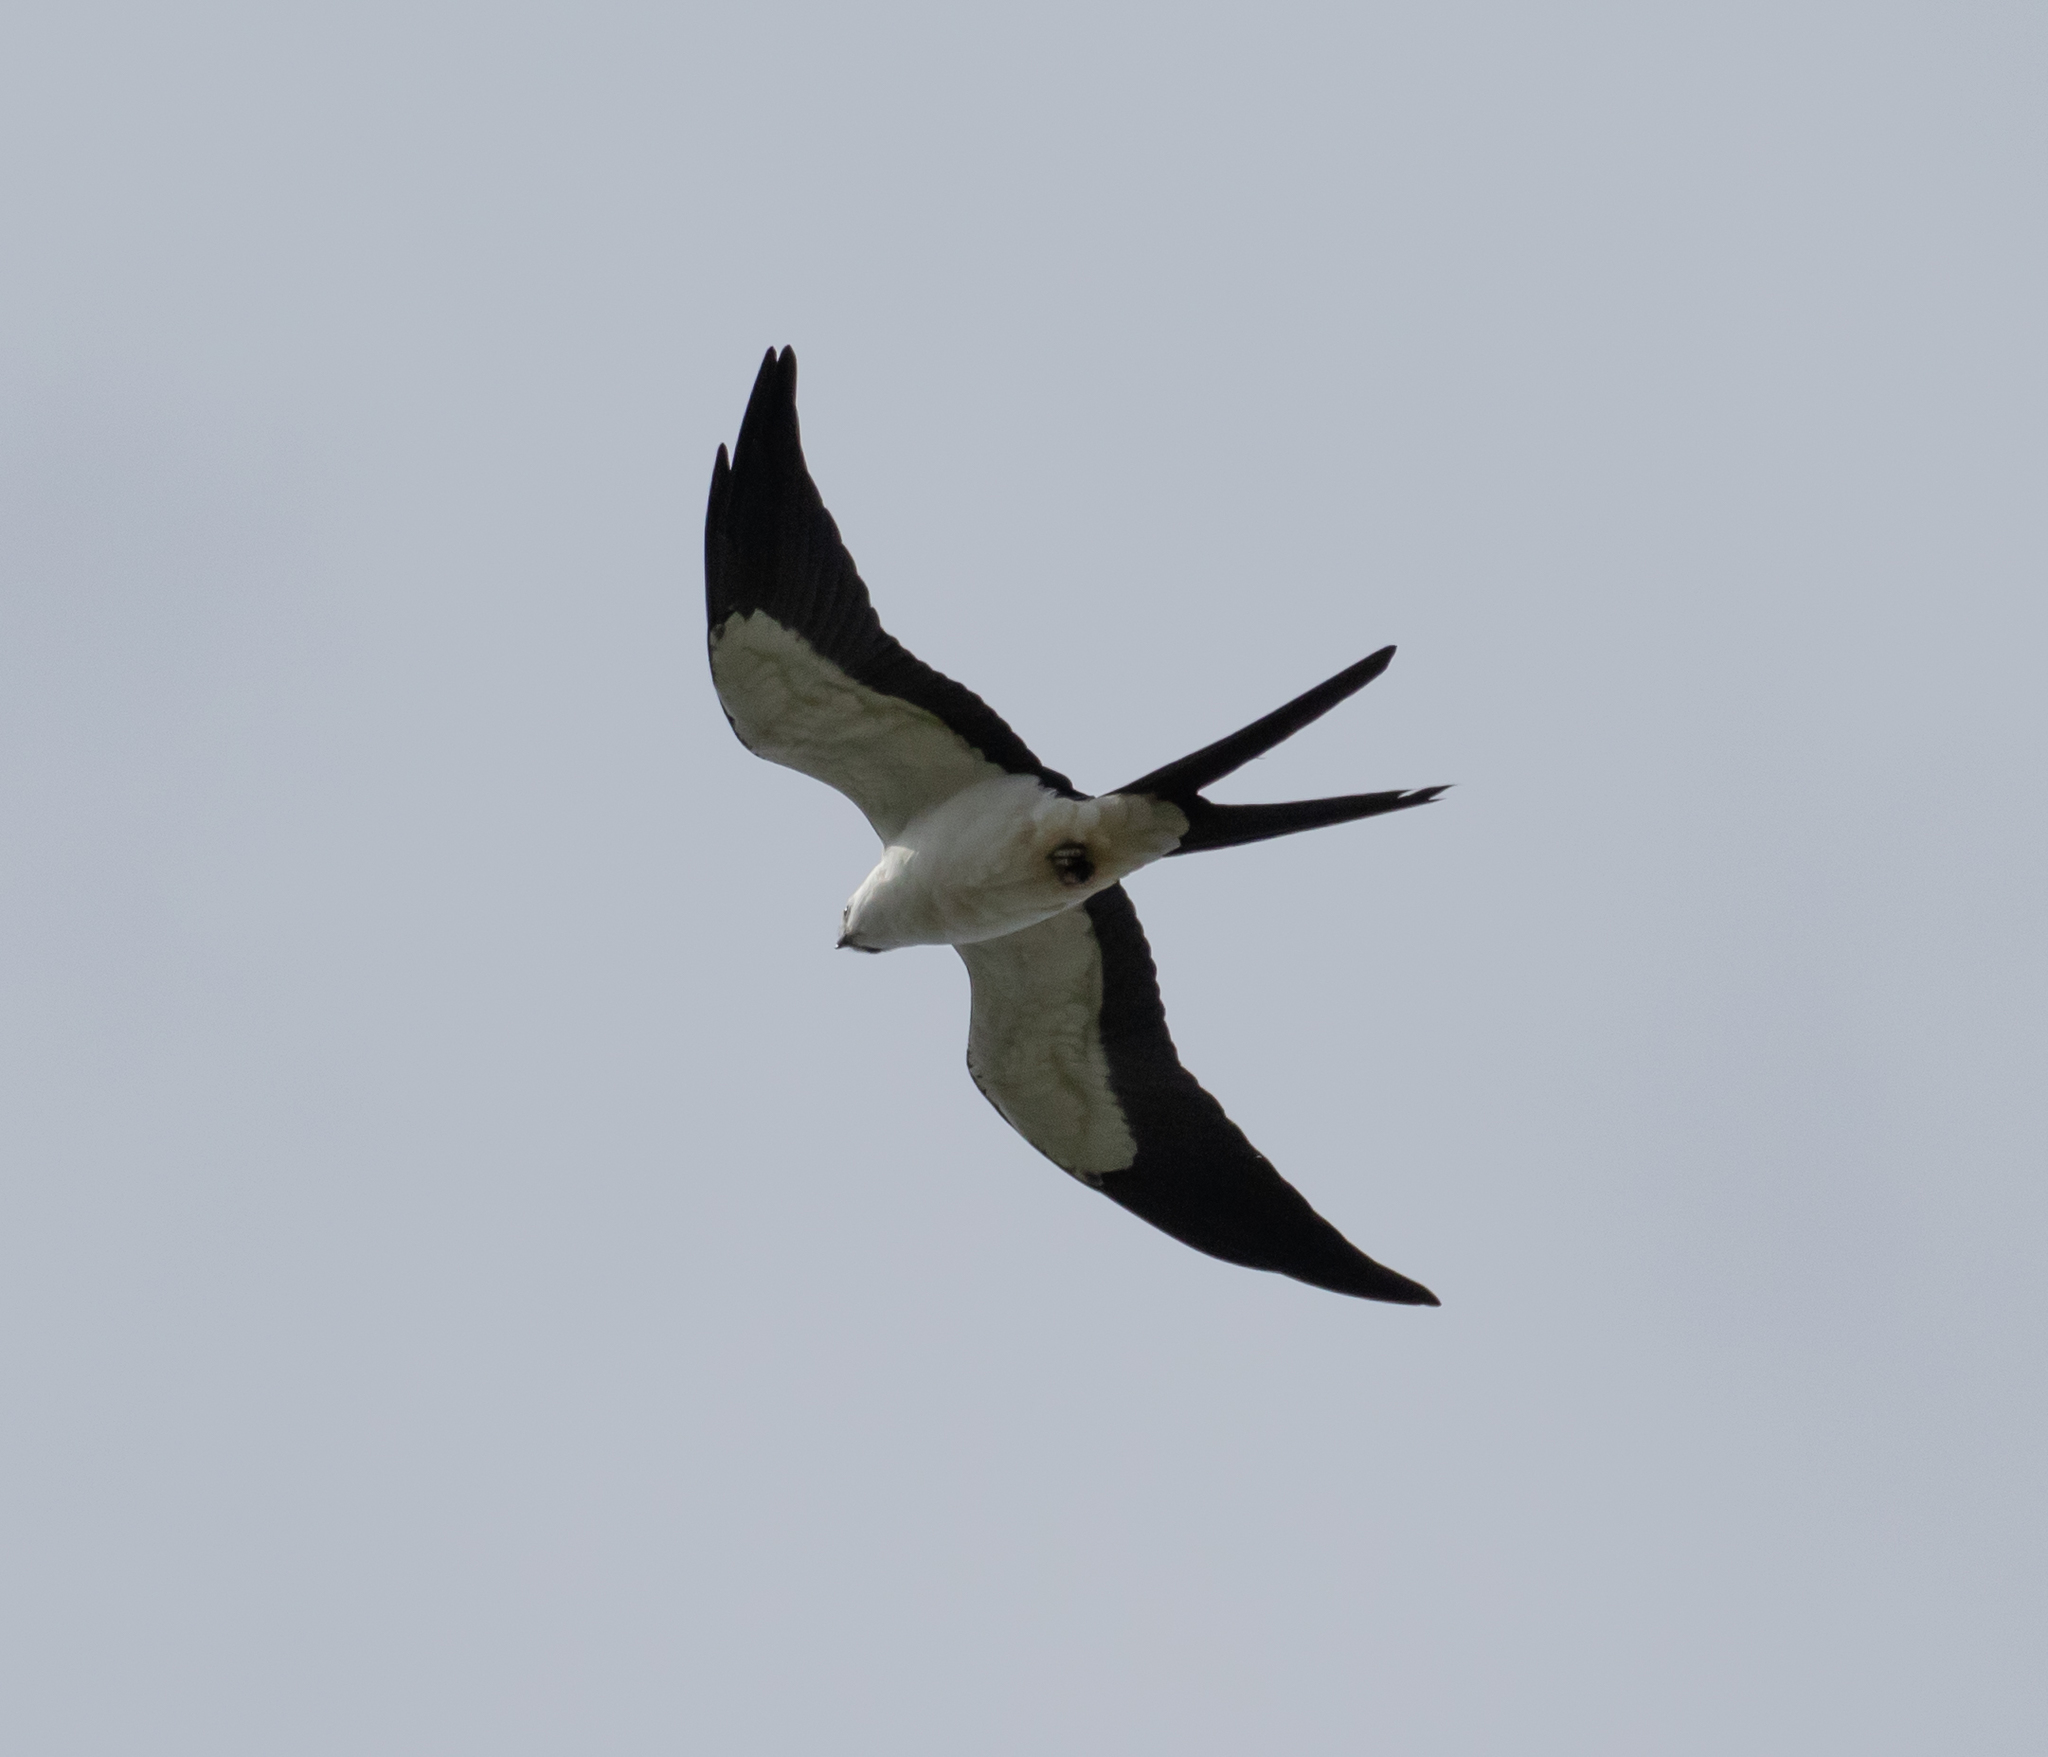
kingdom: Animalia
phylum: Chordata
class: Aves
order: Accipitriformes
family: Accipitridae
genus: Elanoides
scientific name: Elanoides forficatus
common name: Swallow-tailed kite
